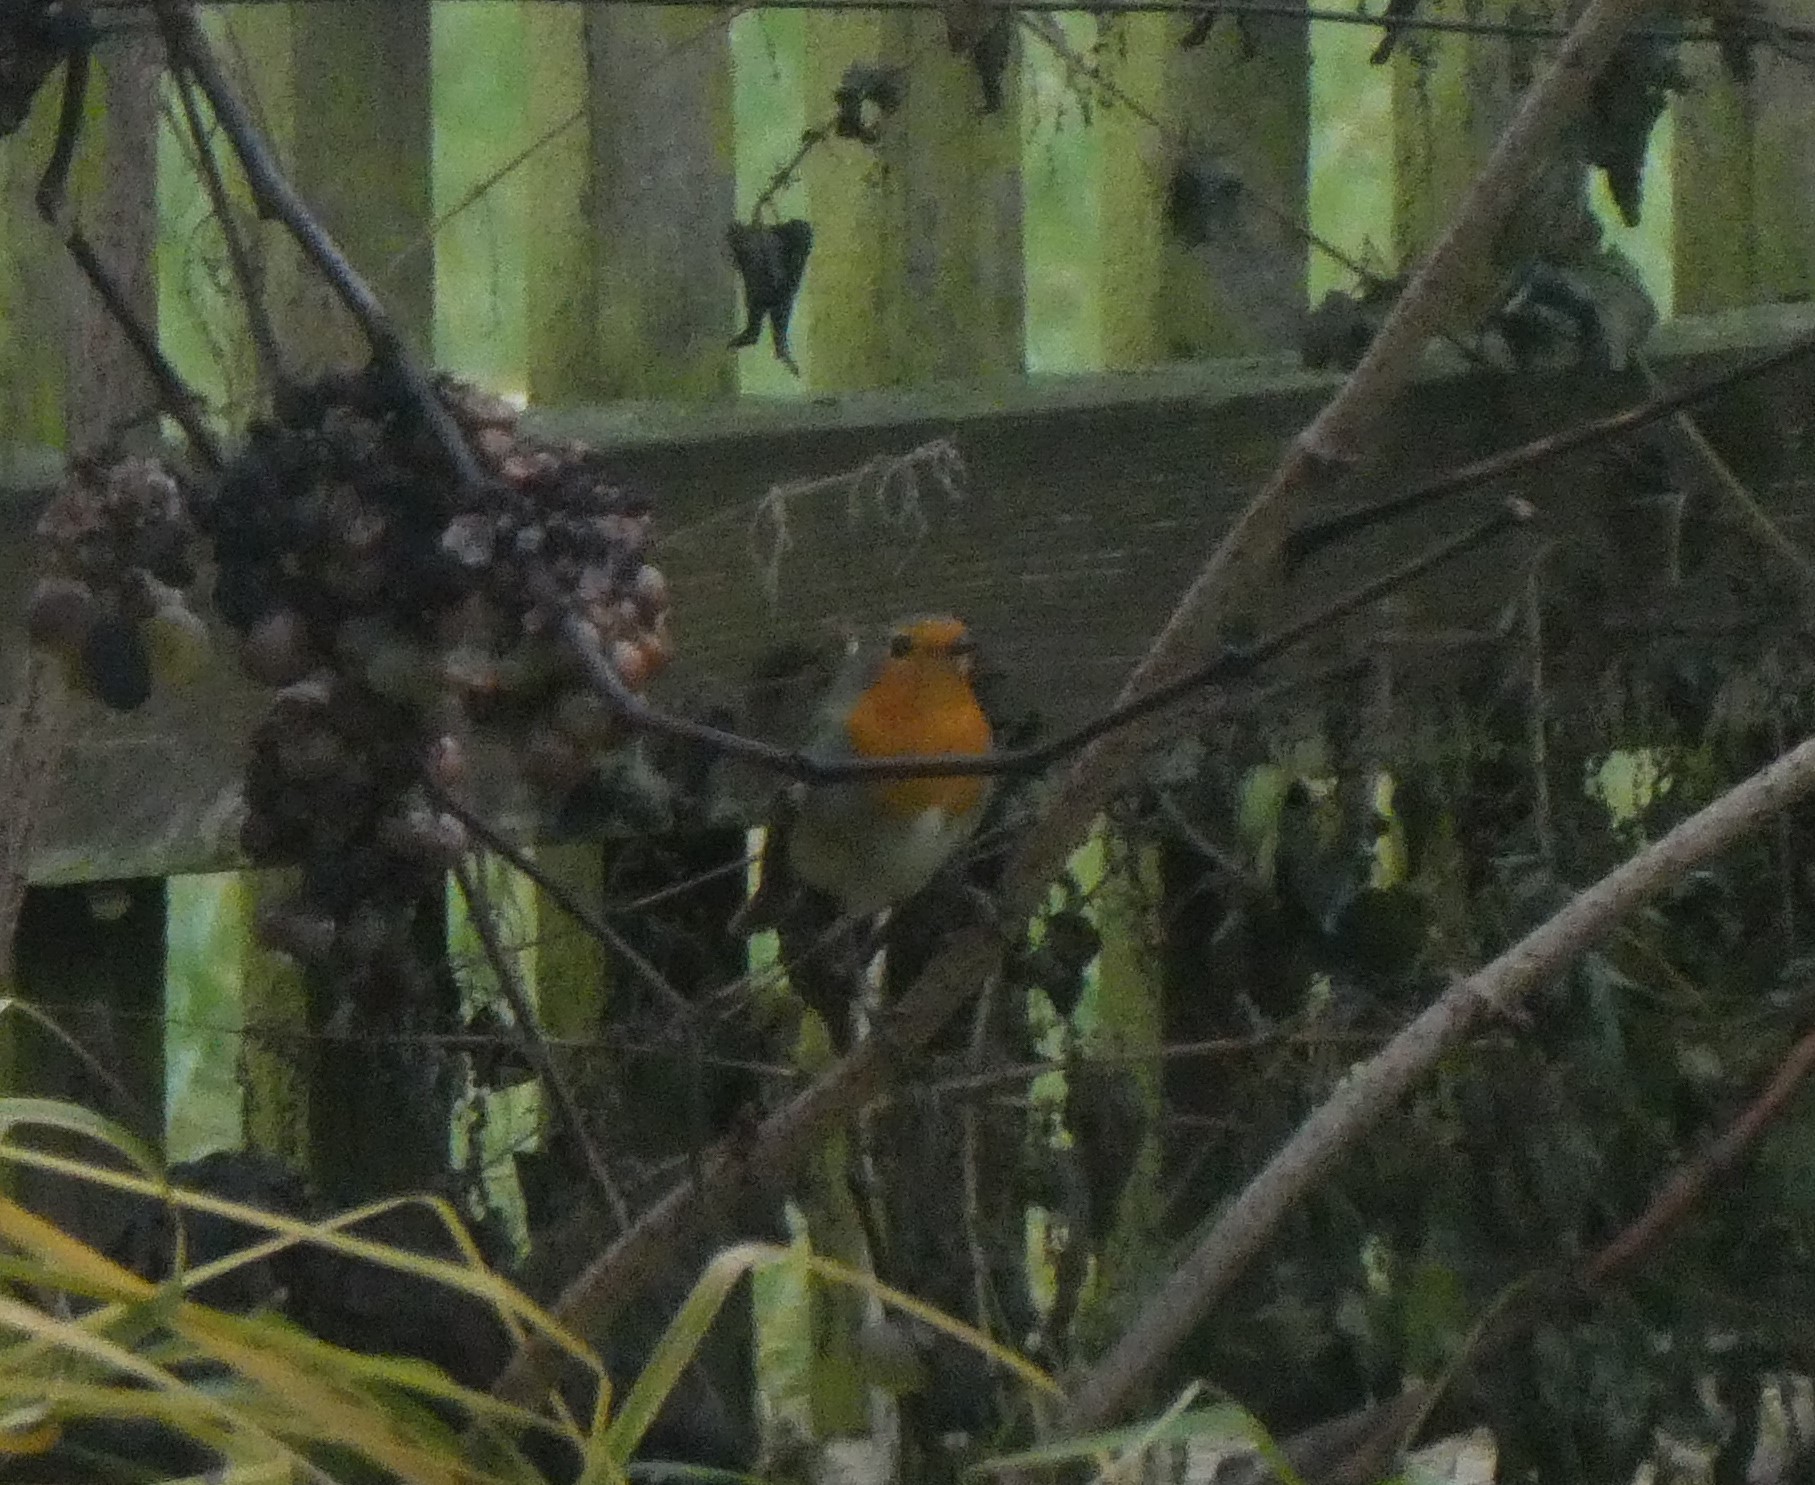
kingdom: Animalia
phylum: Chordata
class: Aves
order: Passeriformes
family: Muscicapidae
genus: Erithacus
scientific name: Erithacus rubecula
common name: European robin
